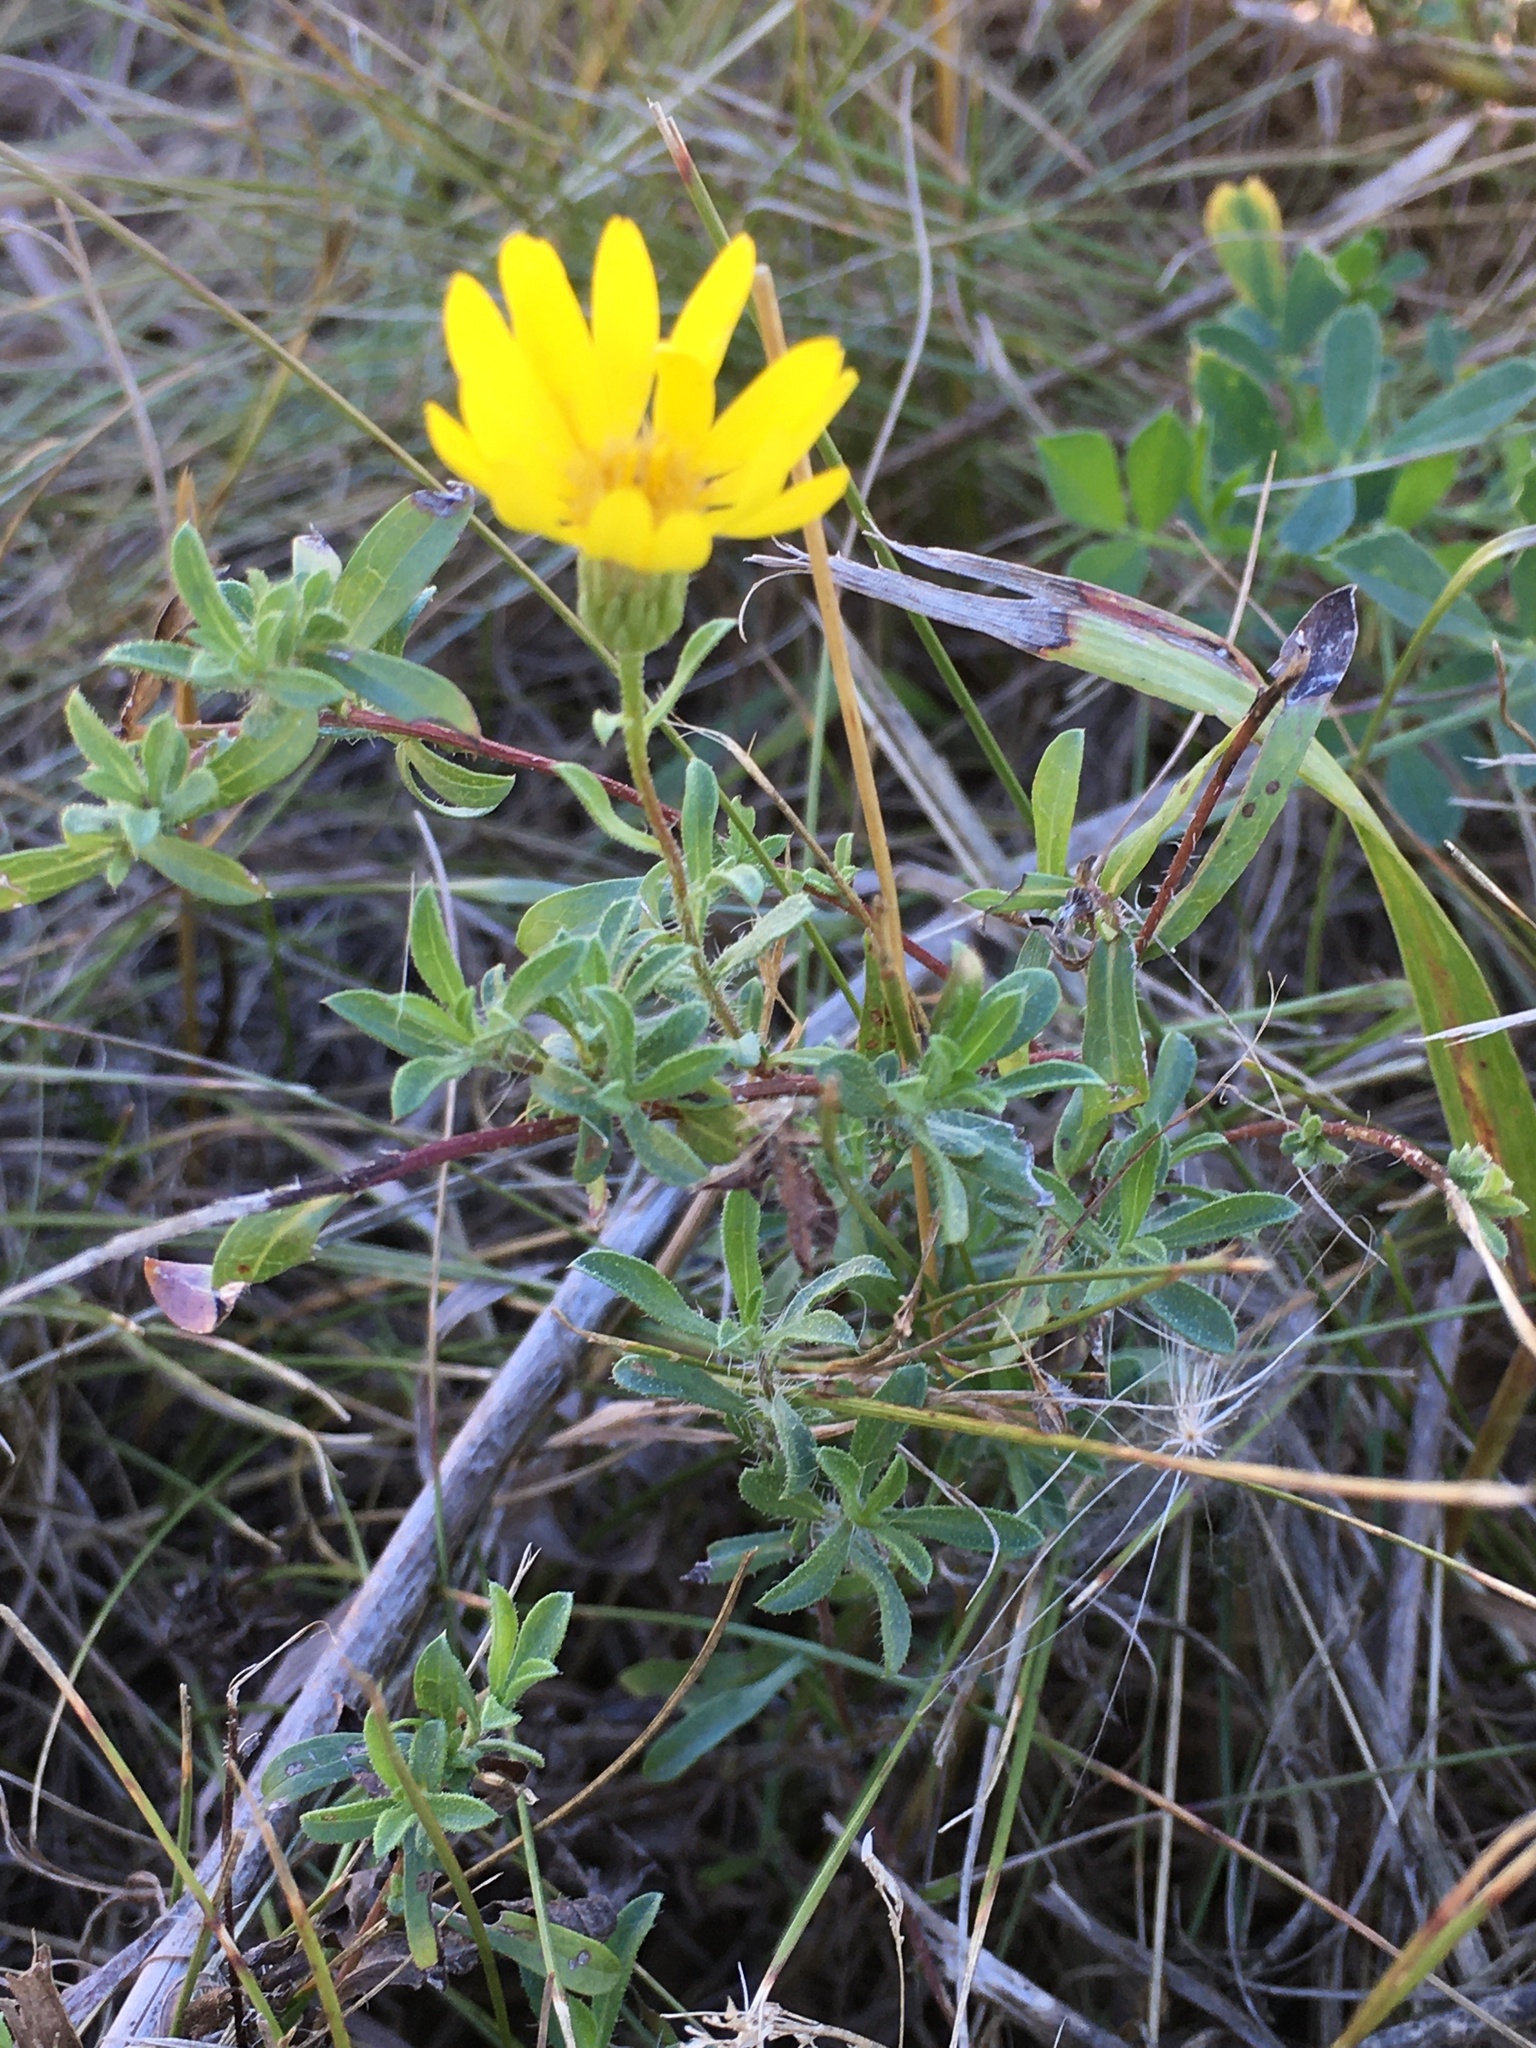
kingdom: Plantae
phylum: Tracheophyta
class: Magnoliopsida
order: Asterales
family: Asteraceae
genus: Heterotheca
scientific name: Heterotheca villosa
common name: Hairy false goldenaster
